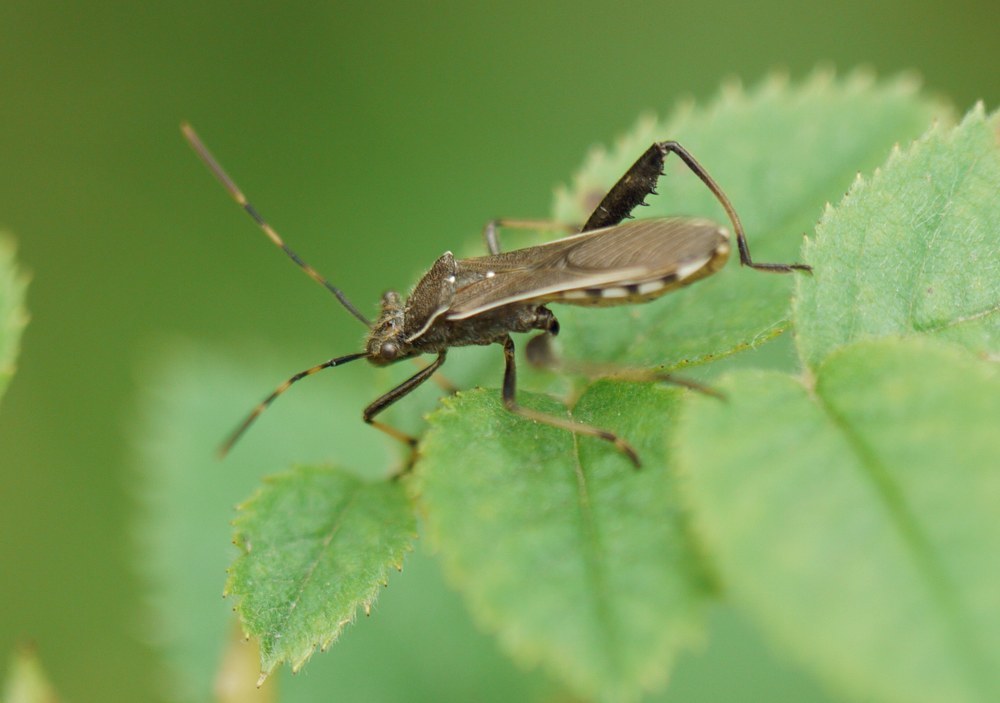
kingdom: Animalia
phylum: Arthropoda
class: Insecta
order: Hemiptera
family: Alydidae
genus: Camptopus
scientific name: Camptopus lateralis
